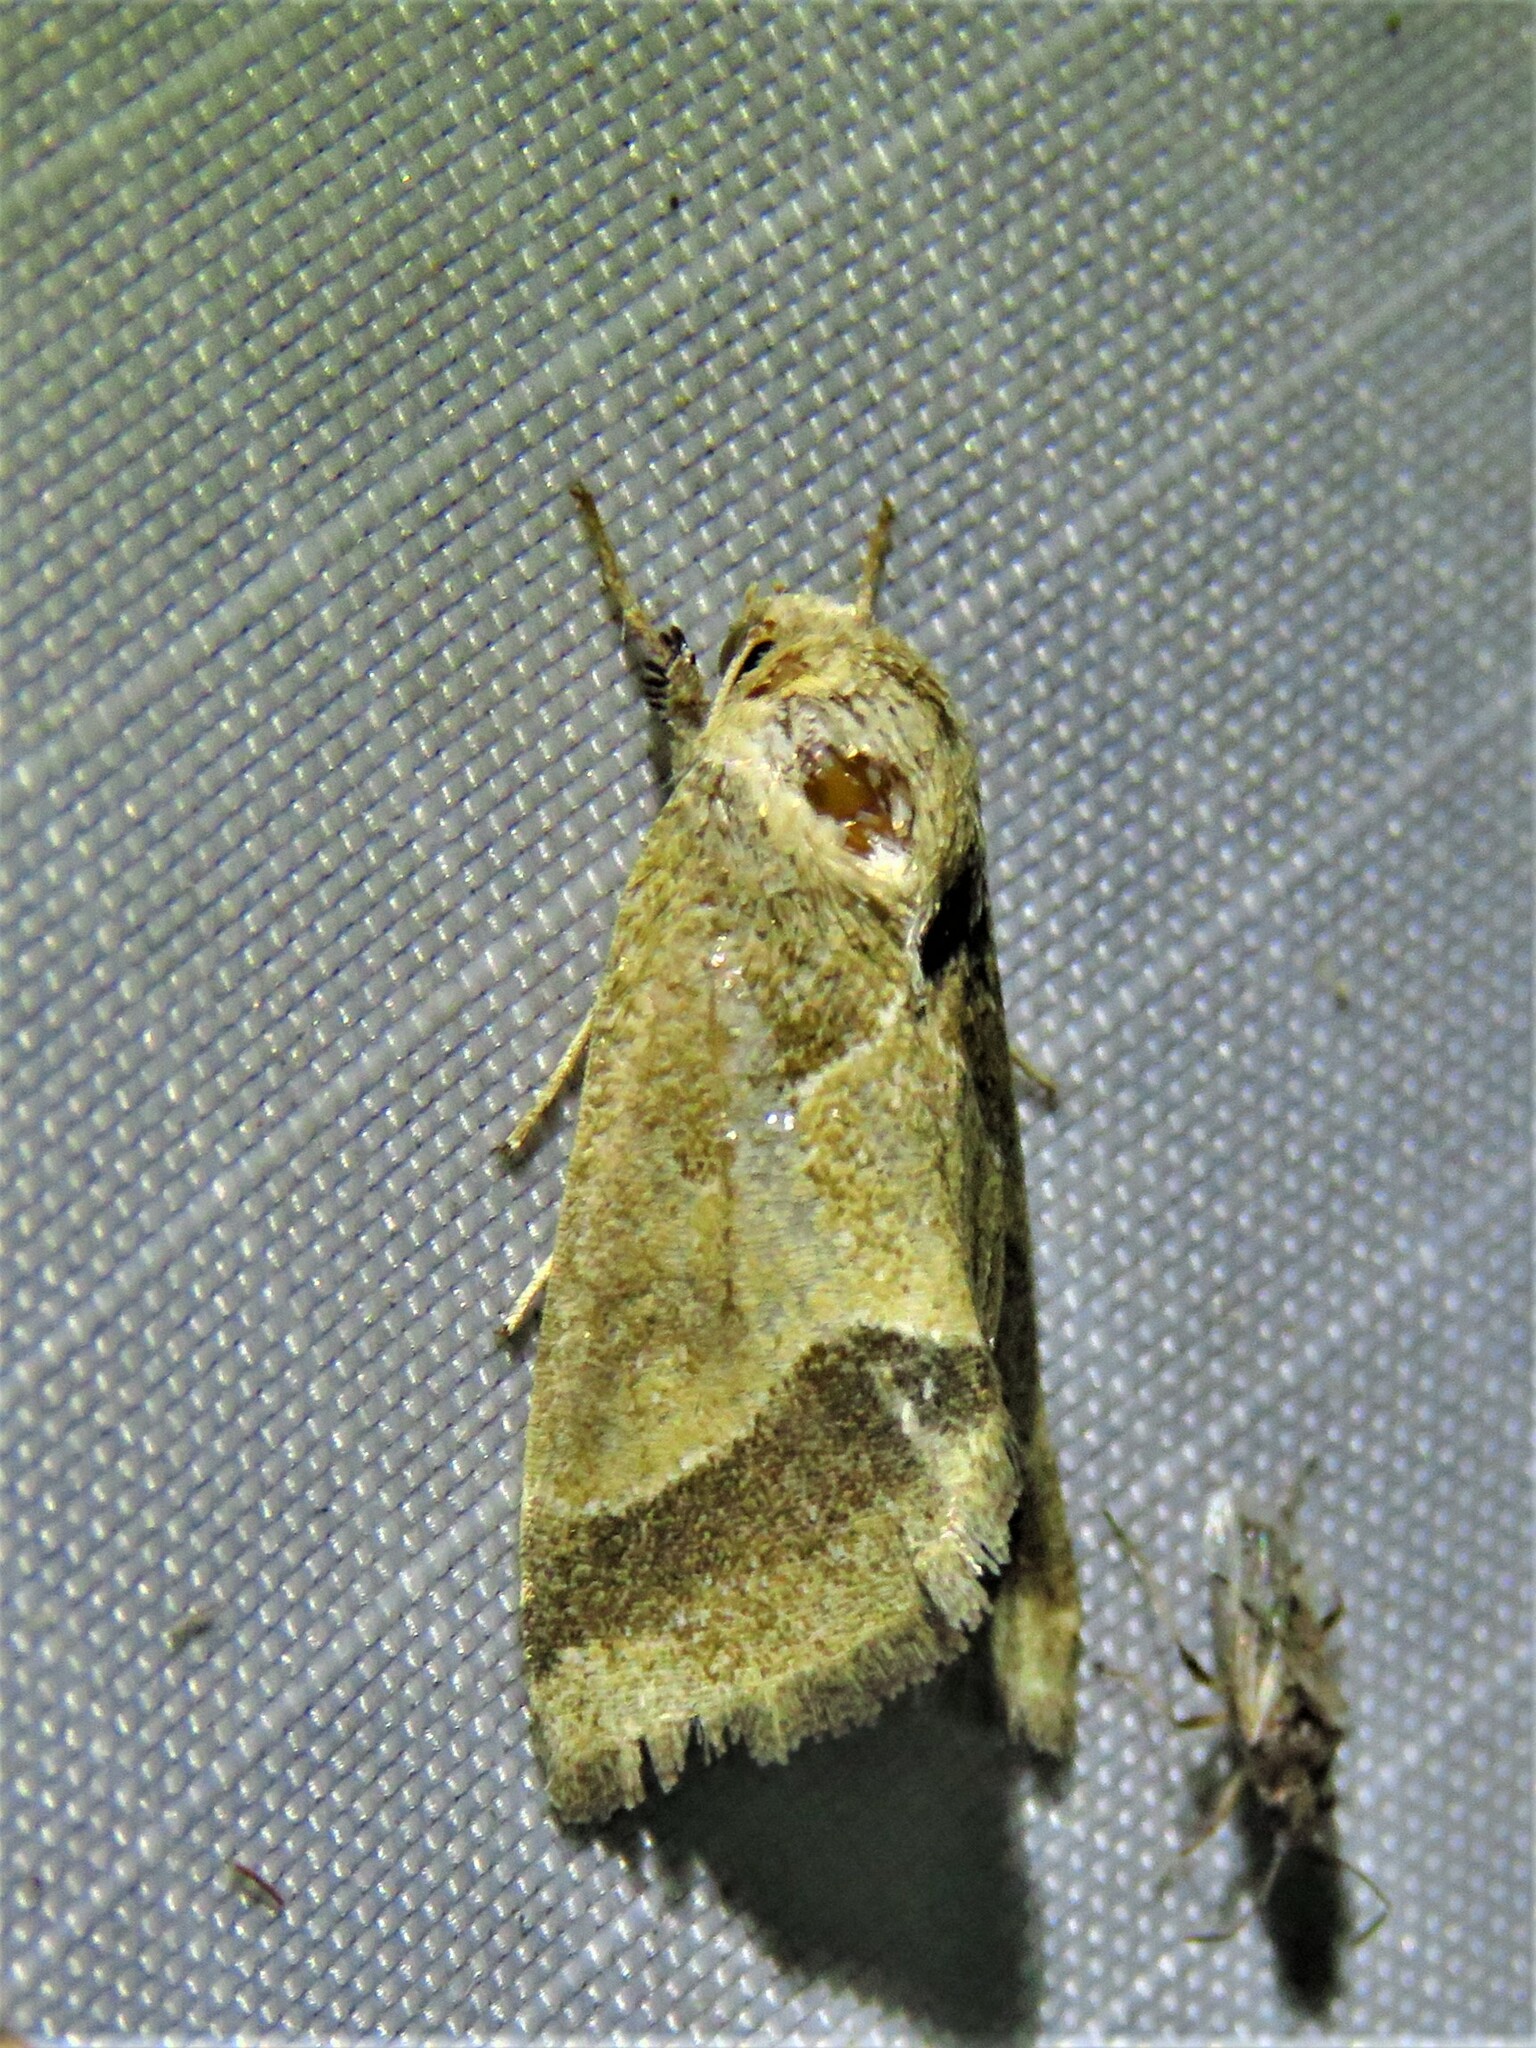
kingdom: Animalia
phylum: Arthropoda
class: Insecta
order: Lepidoptera
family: Noctuidae
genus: Schinia
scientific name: Schinia gracilenta
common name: Slender flower moth
